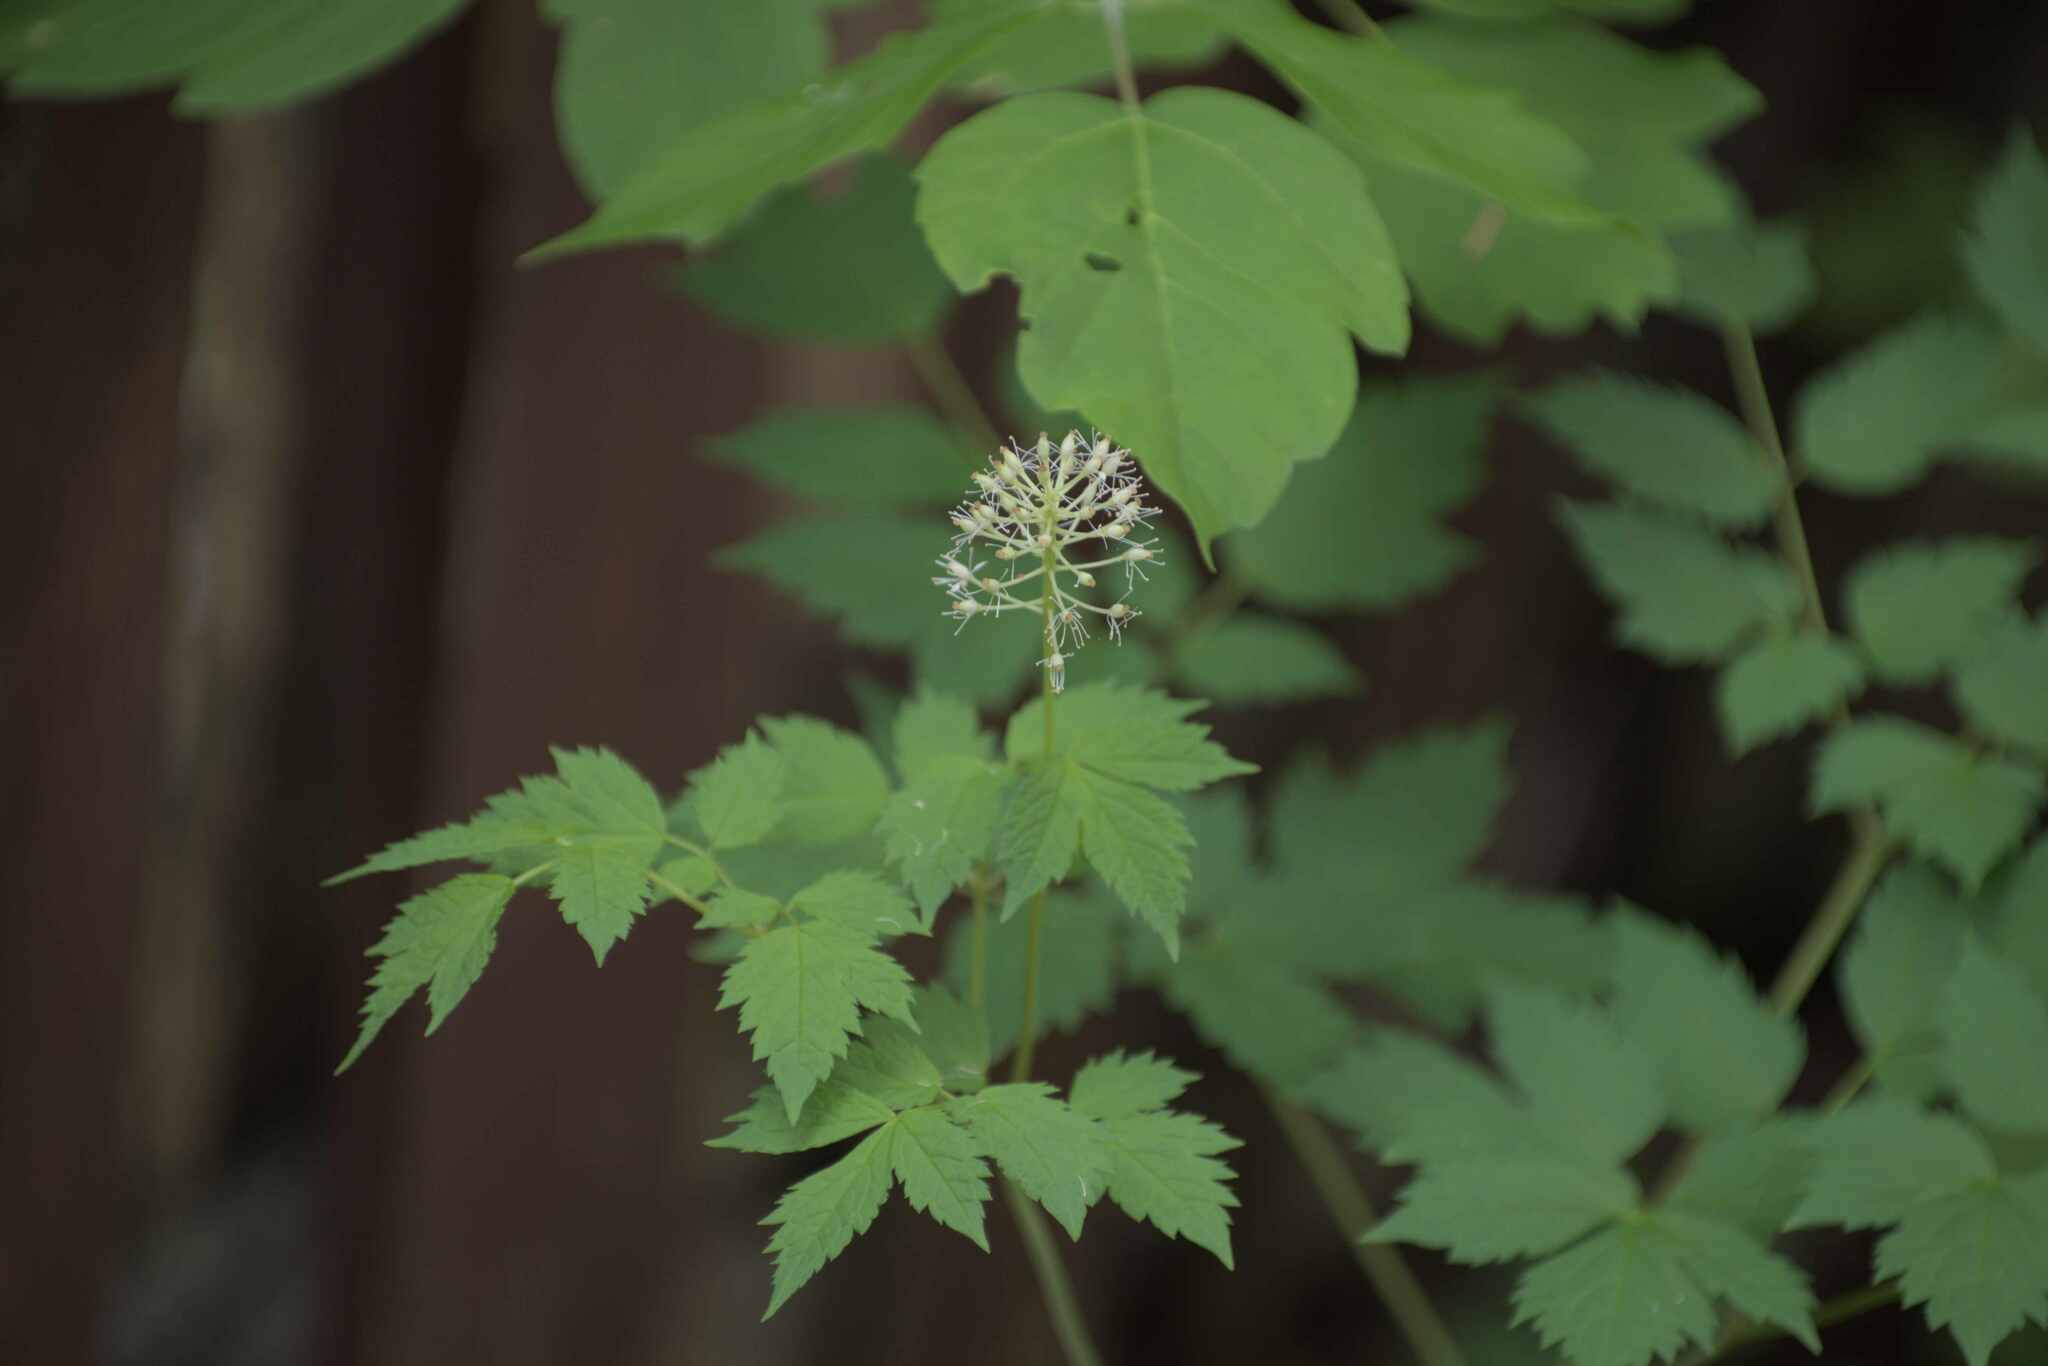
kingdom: Plantae
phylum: Tracheophyta
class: Magnoliopsida
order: Ranunculales
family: Ranunculaceae
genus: Actaea
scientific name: Actaea rubra
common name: Red baneberry
